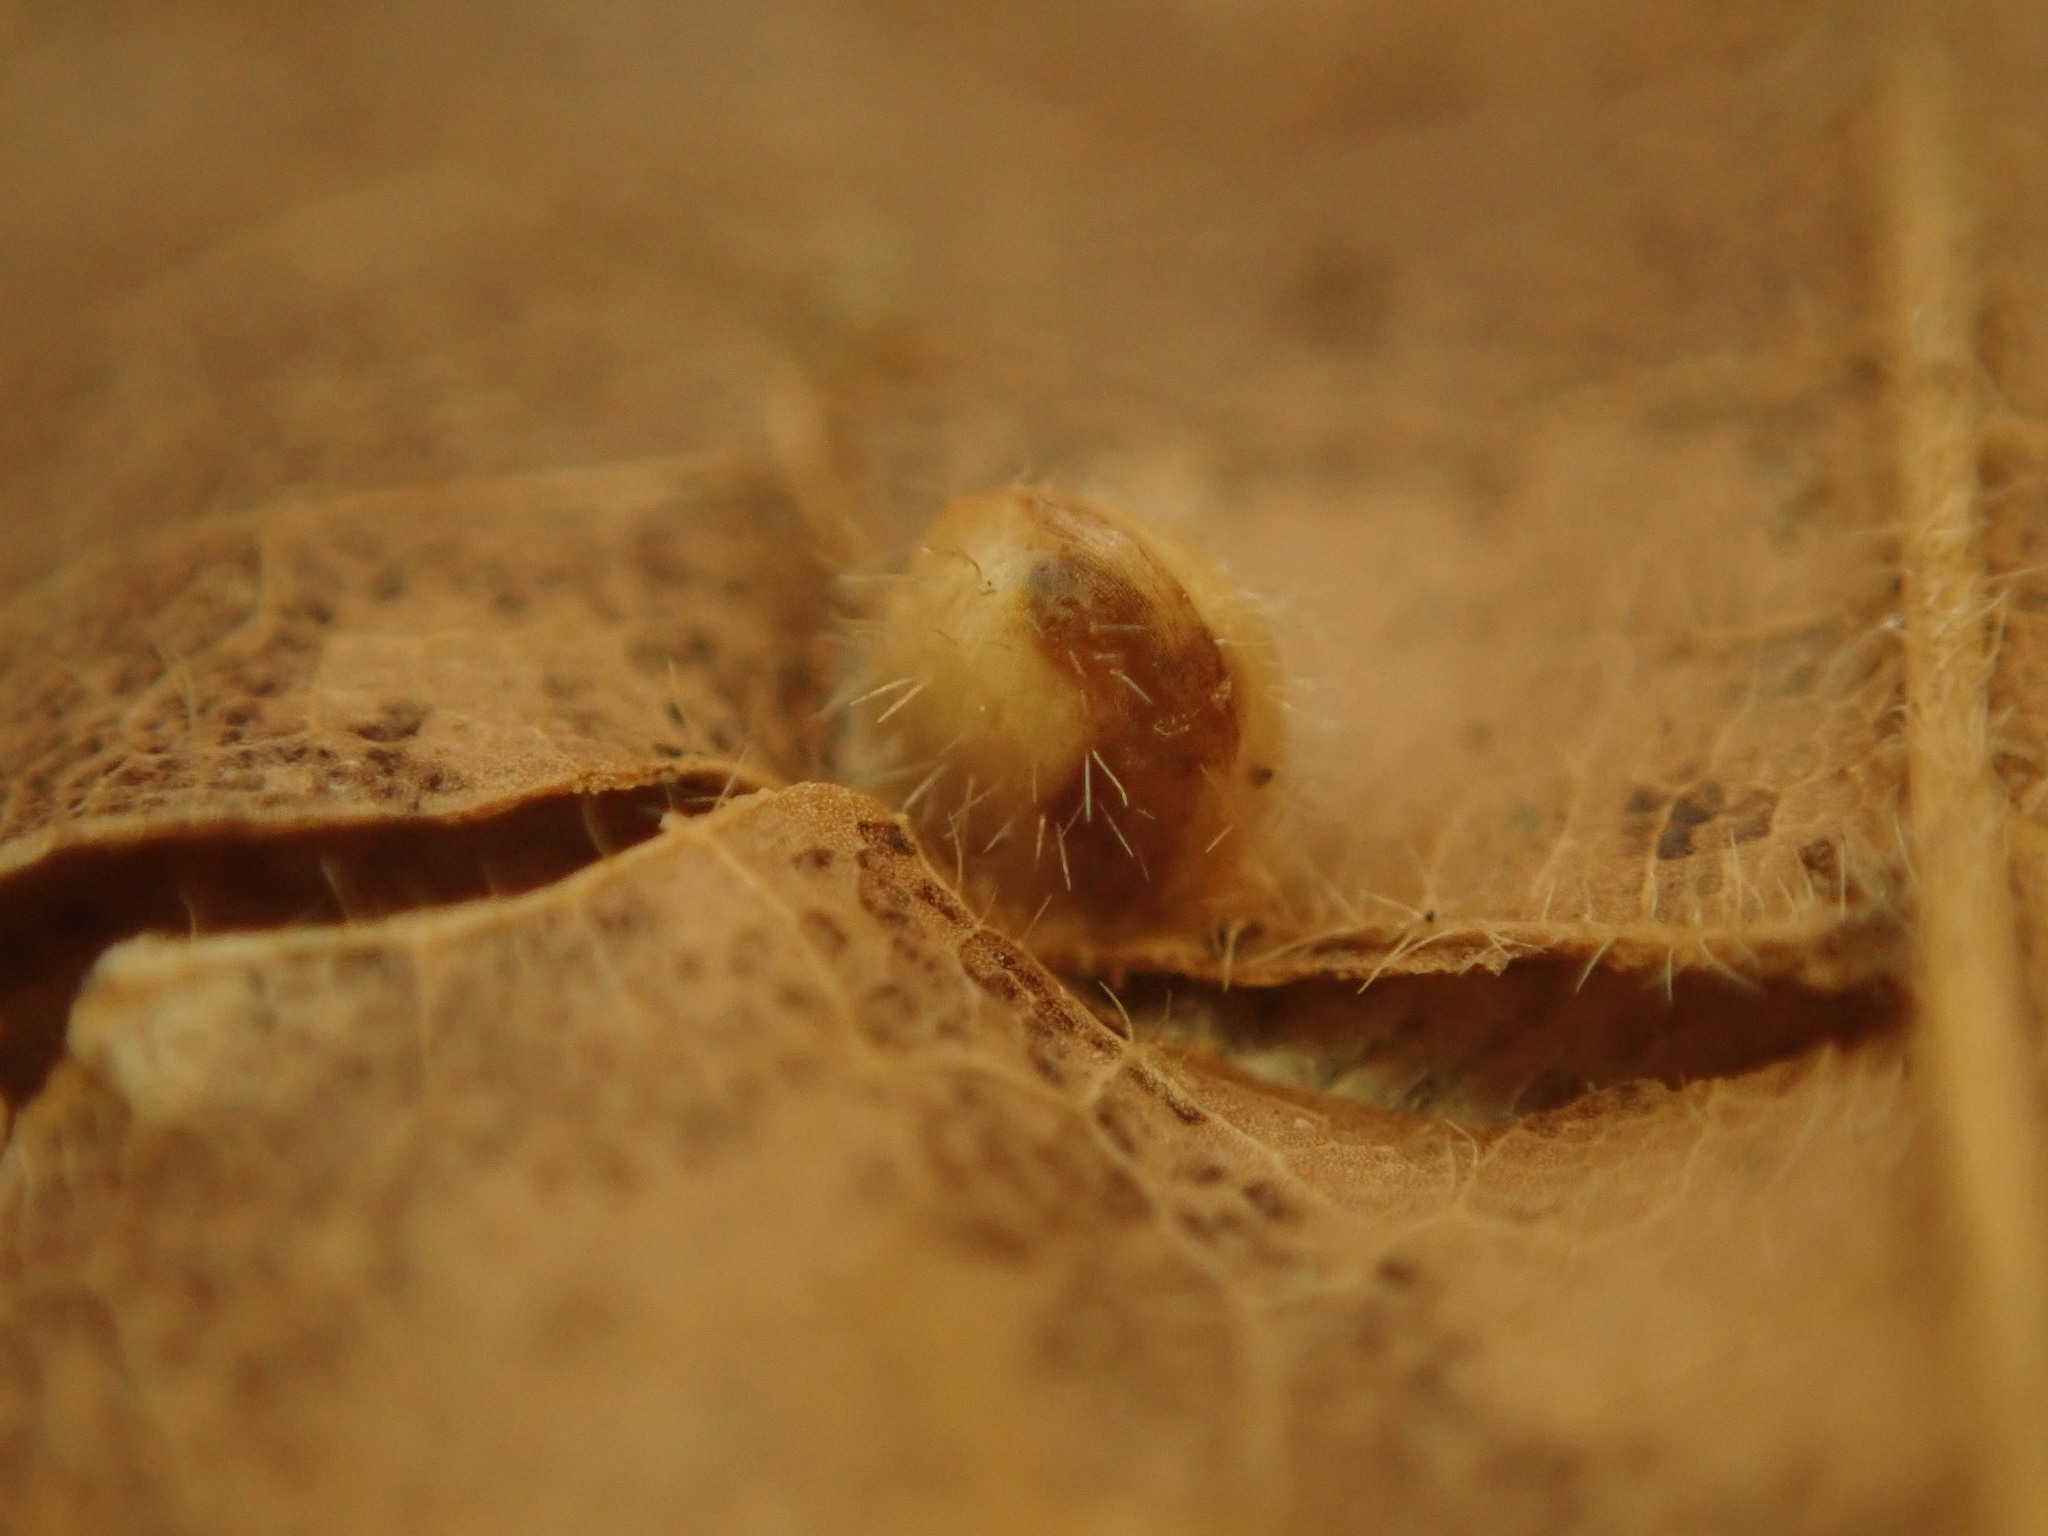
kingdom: Animalia
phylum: Arthropoda
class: Arachnida
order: Trombidiformes
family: Eriophyidae
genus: Vasates
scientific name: Vasates quadripedes
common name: Maple bladder gall mite
